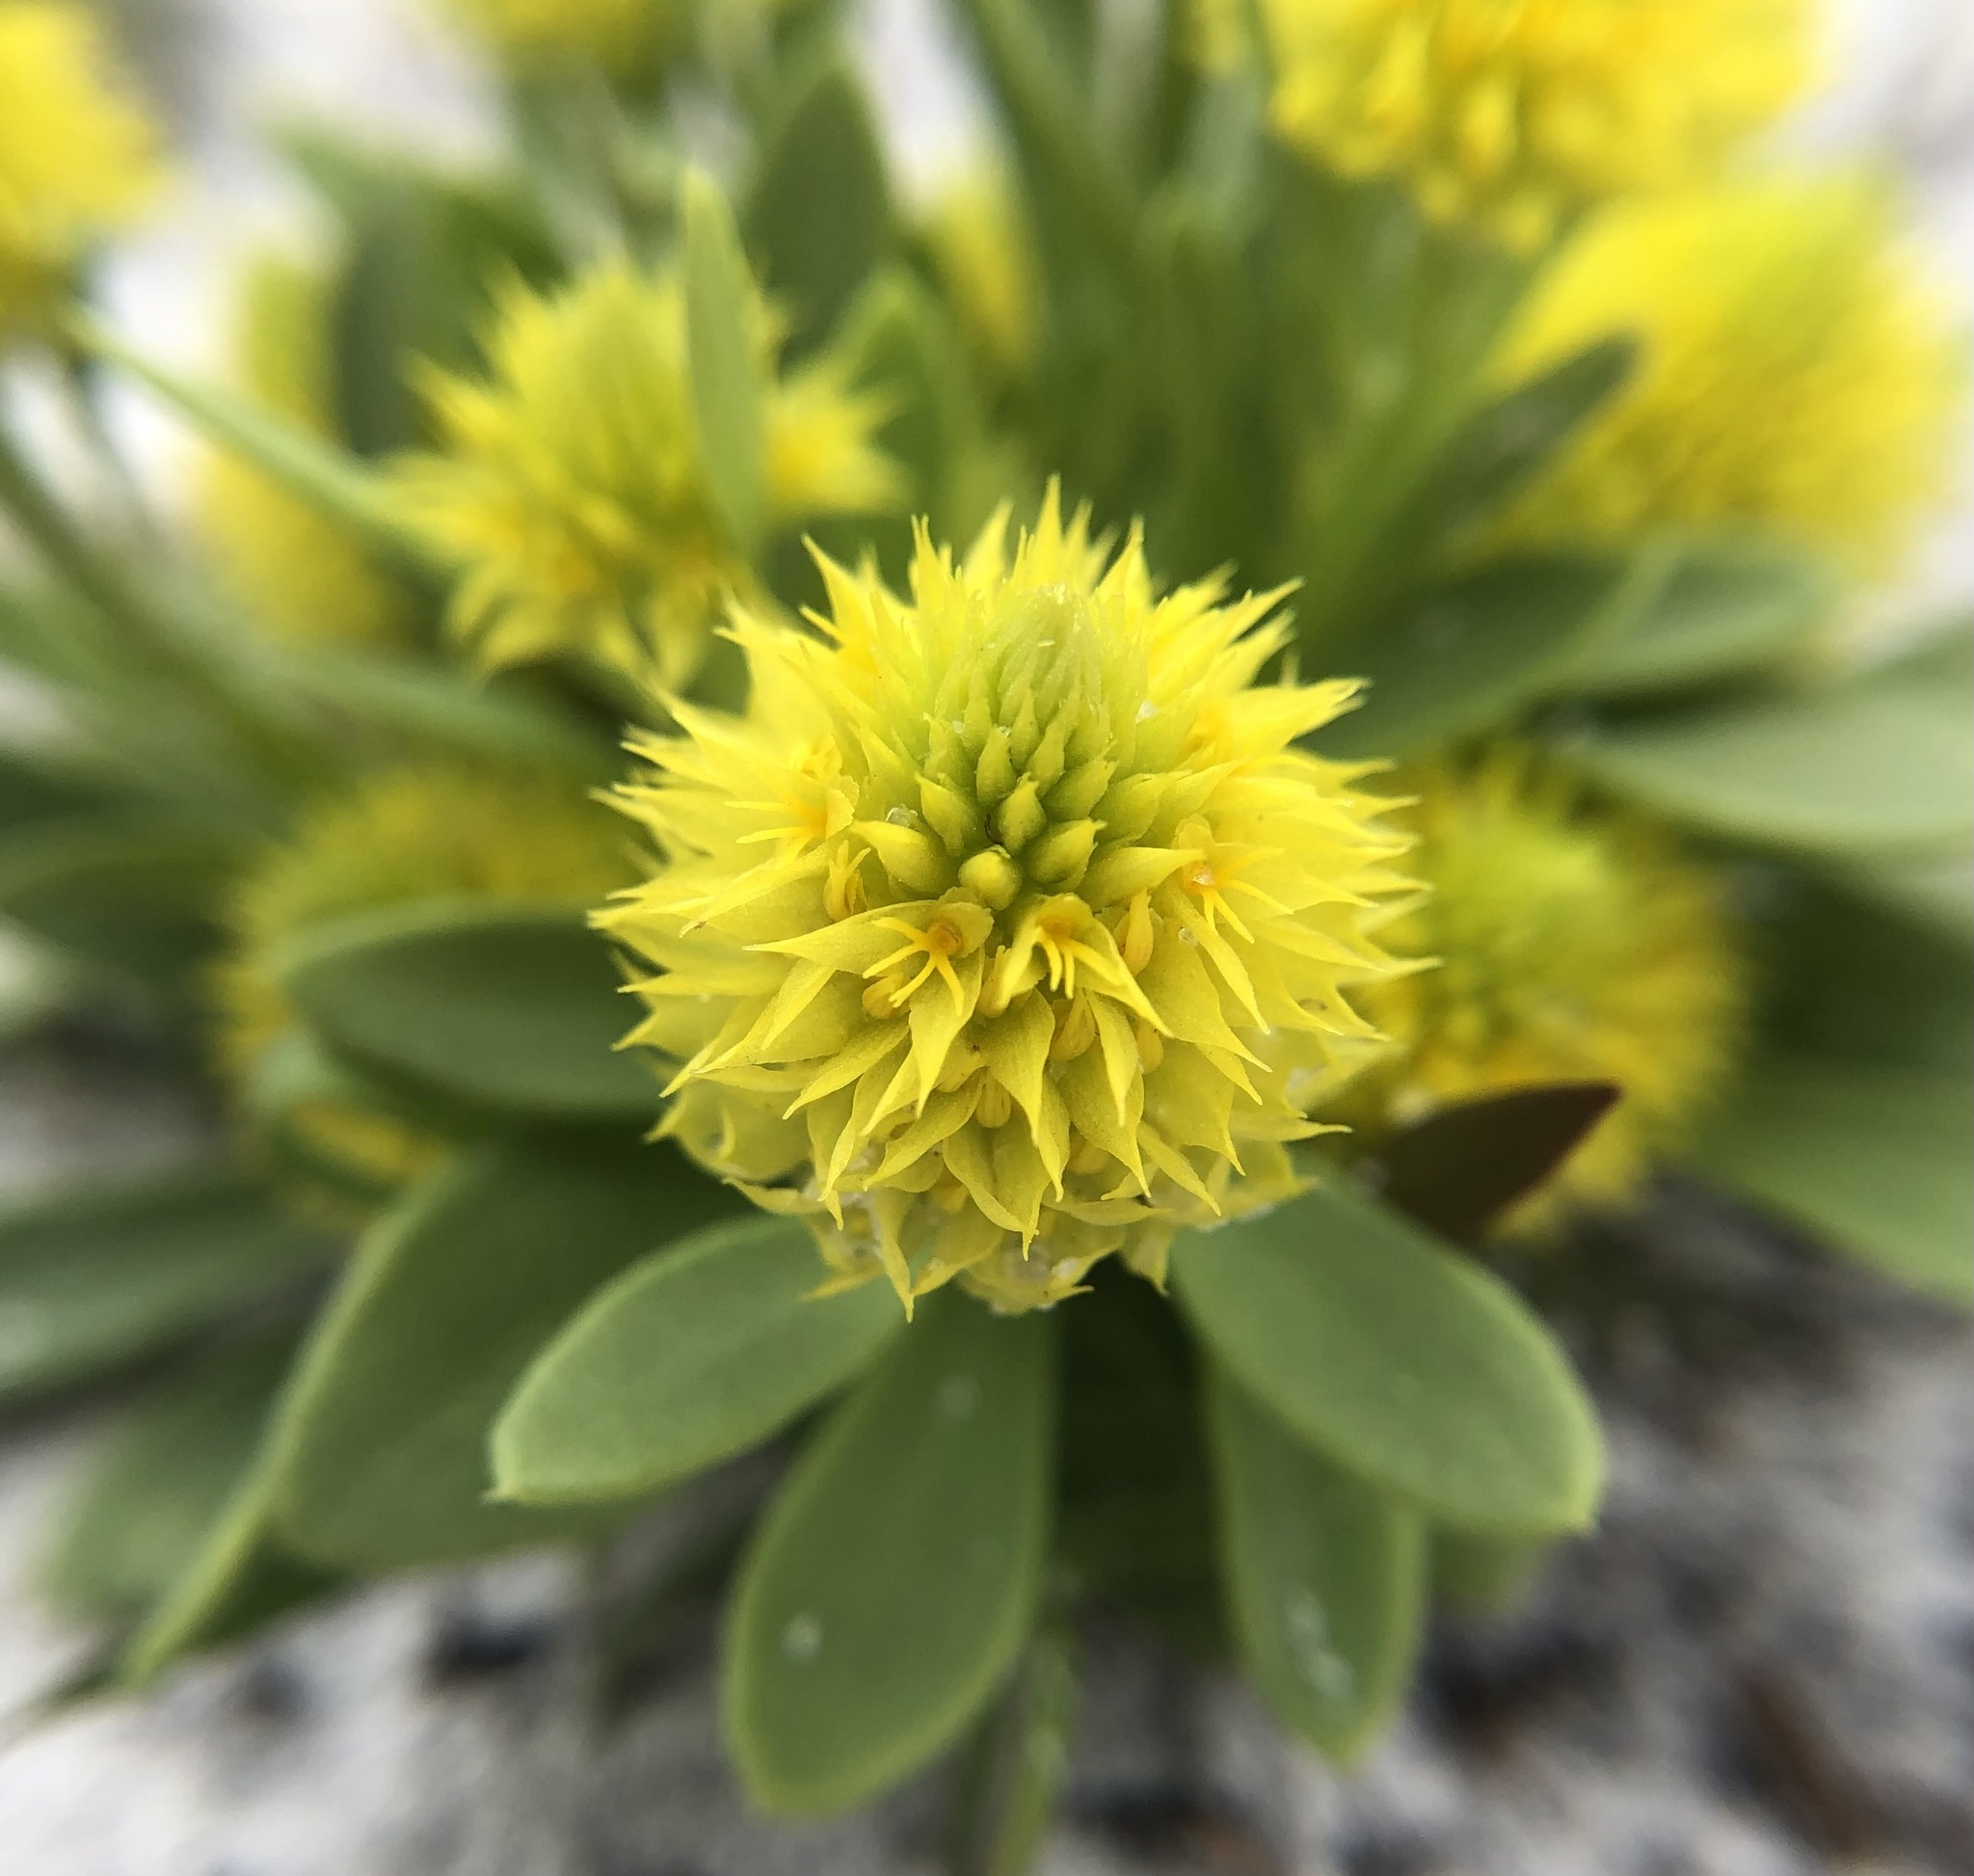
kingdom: Plantae
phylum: Tracheophyta
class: Magnoliopsida
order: Fabales
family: Polygalaceae
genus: Polygala
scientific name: Polygala nana
